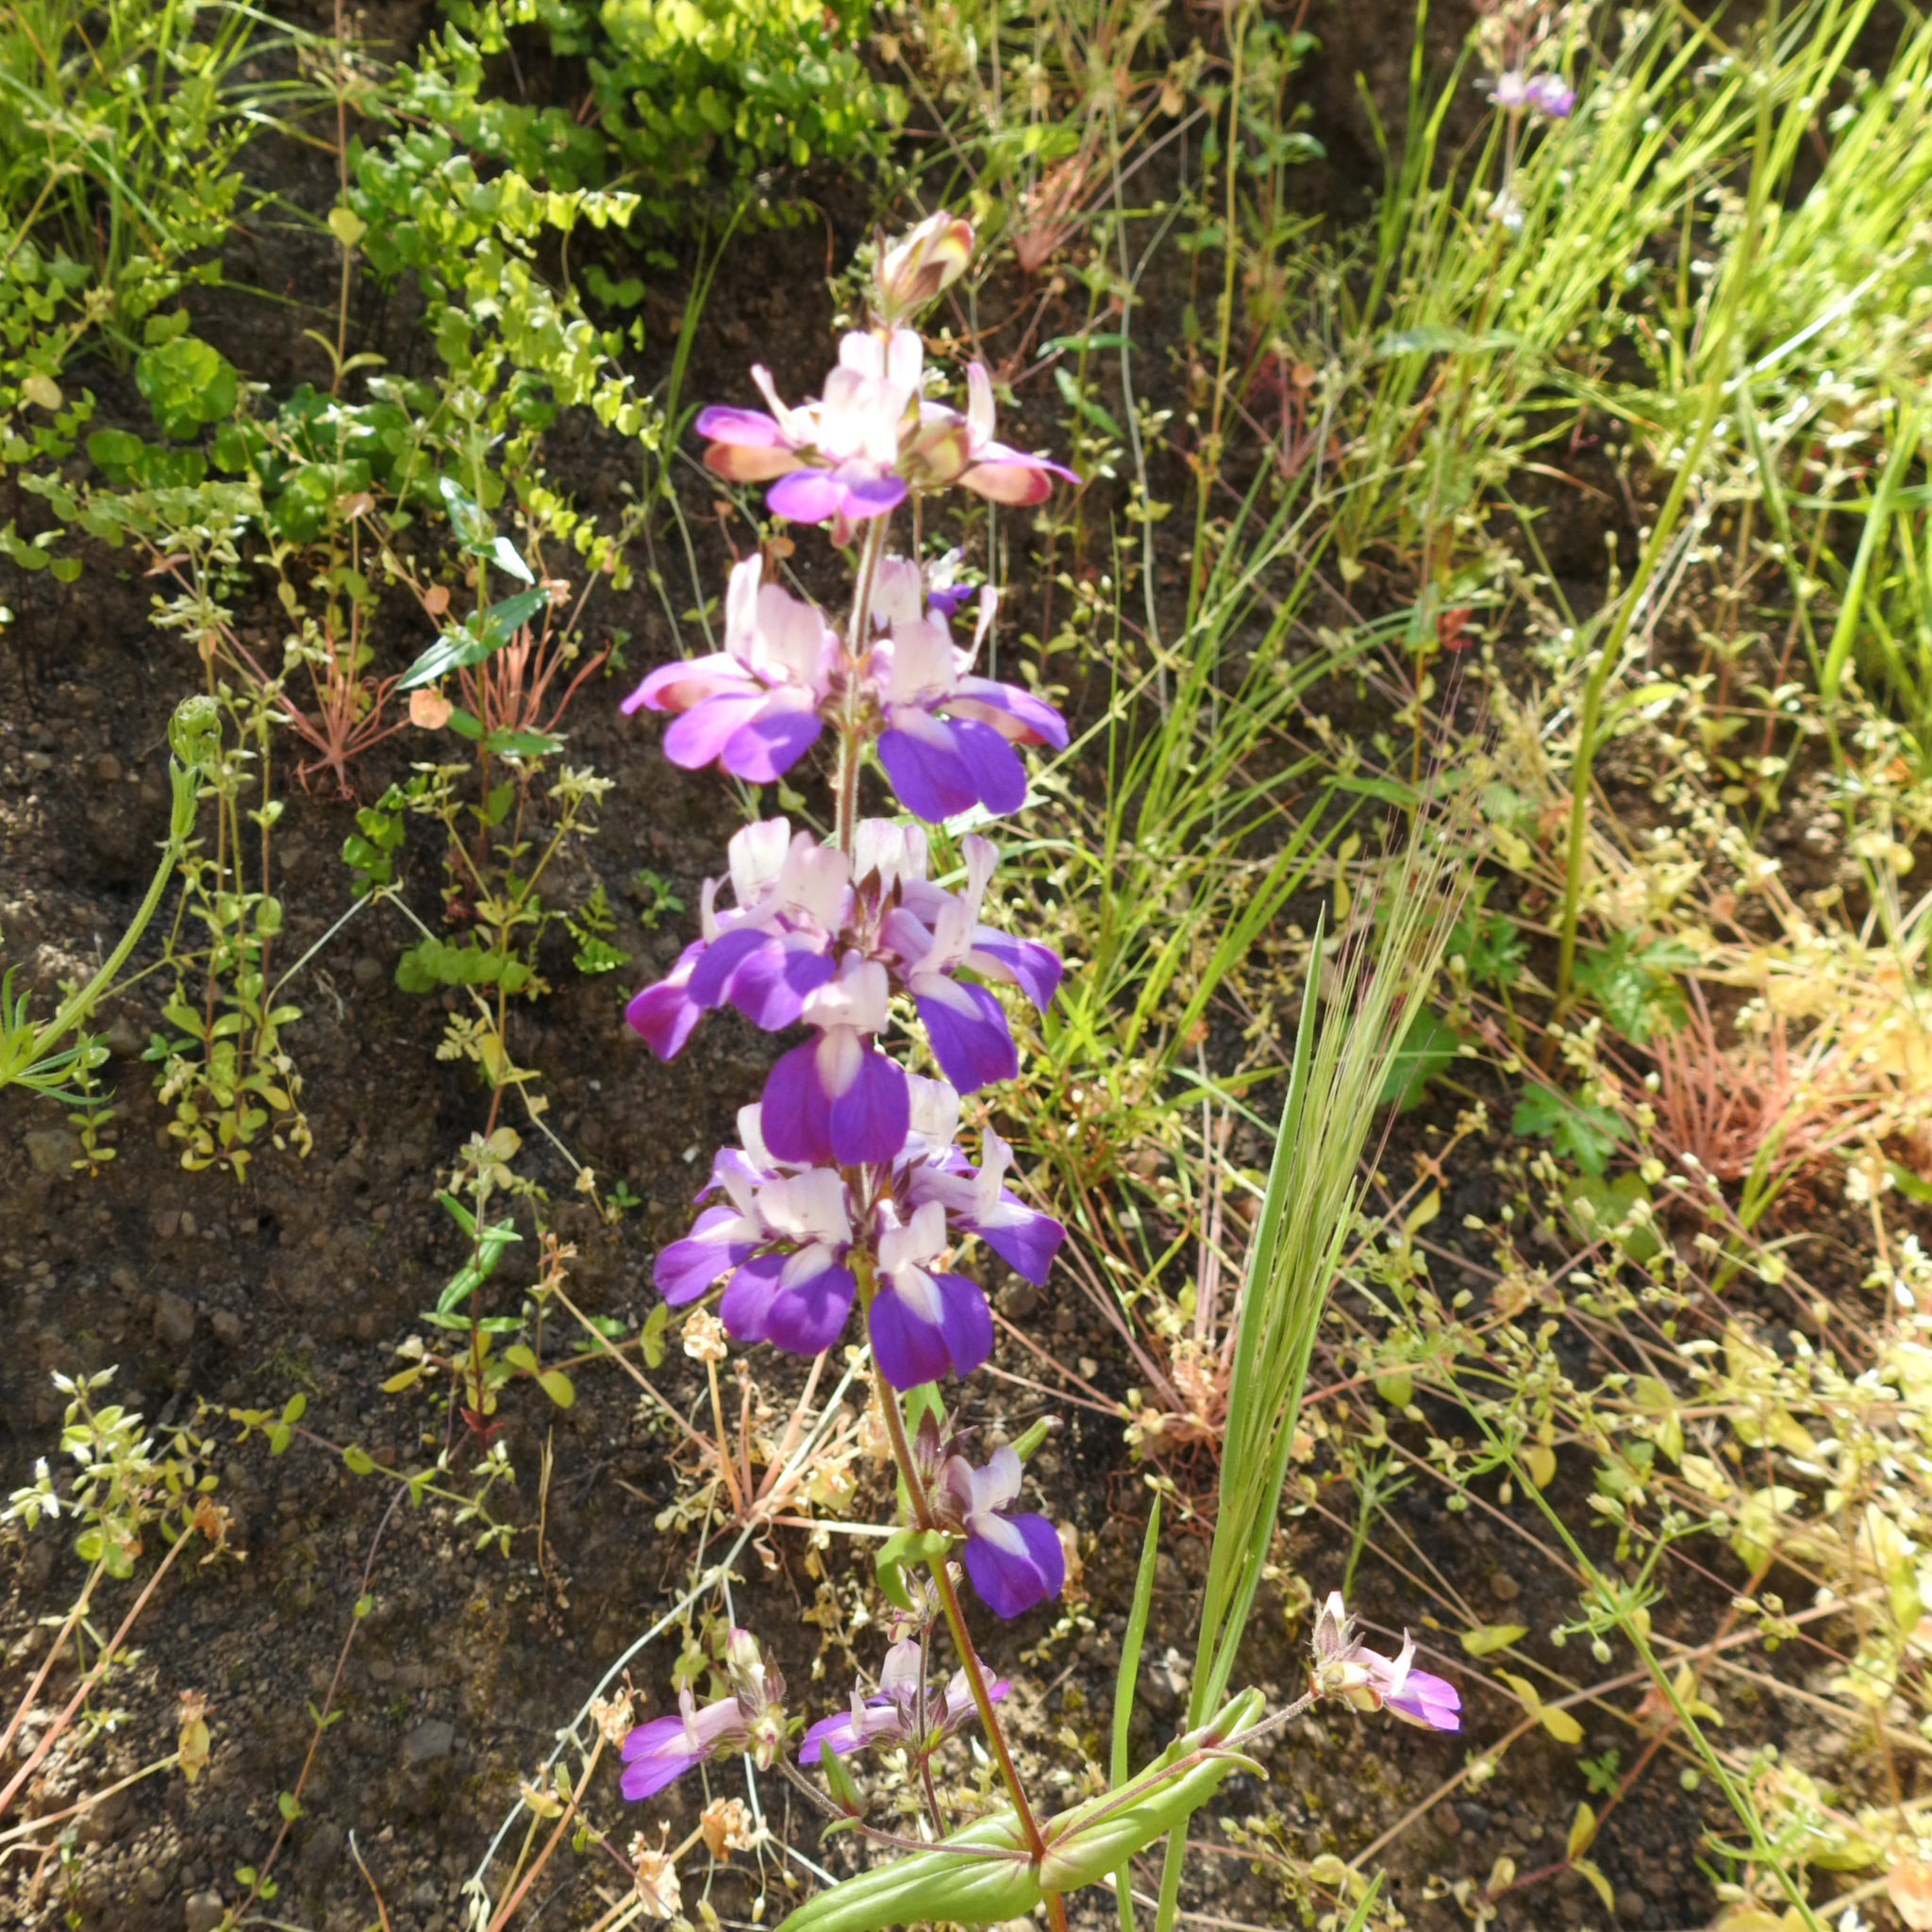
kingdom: Plantae
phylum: Tracheophyta
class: Magnoliopsida
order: Lamiales
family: Plantaginaceae
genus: Collinsia
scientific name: Collinsia heterophylla
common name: Chinese-houses
